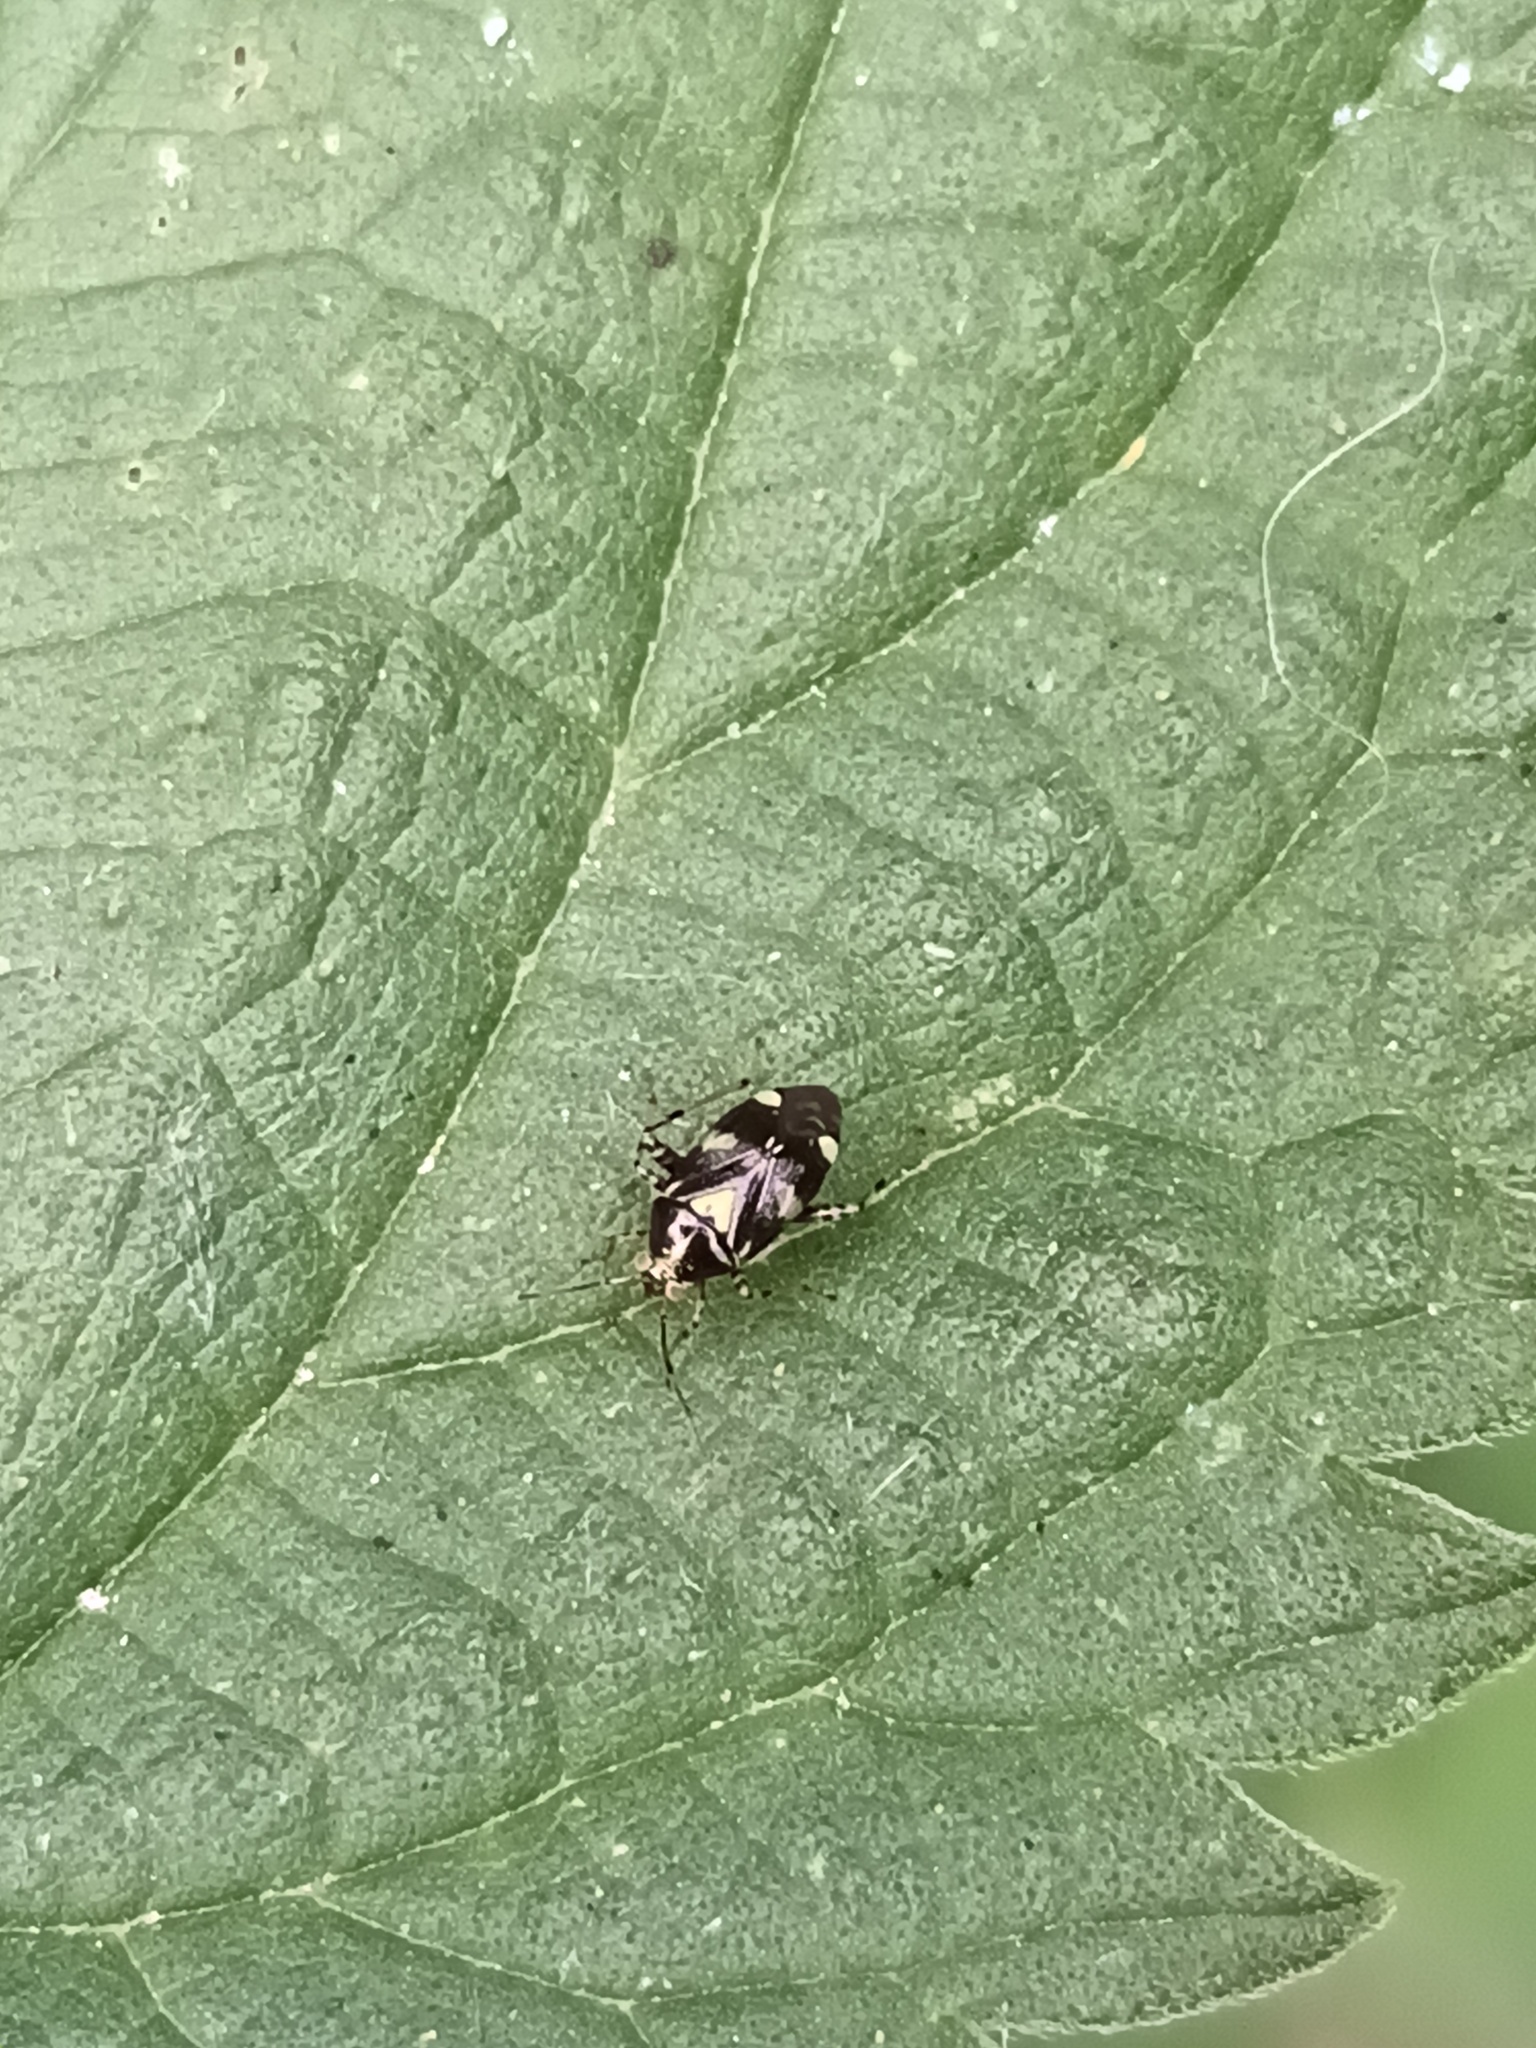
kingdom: Animalia
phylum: Arthropoda
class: Insecta
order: Hemiptera
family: Miridae
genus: Liocoris
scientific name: Liocoris tripustulatus
